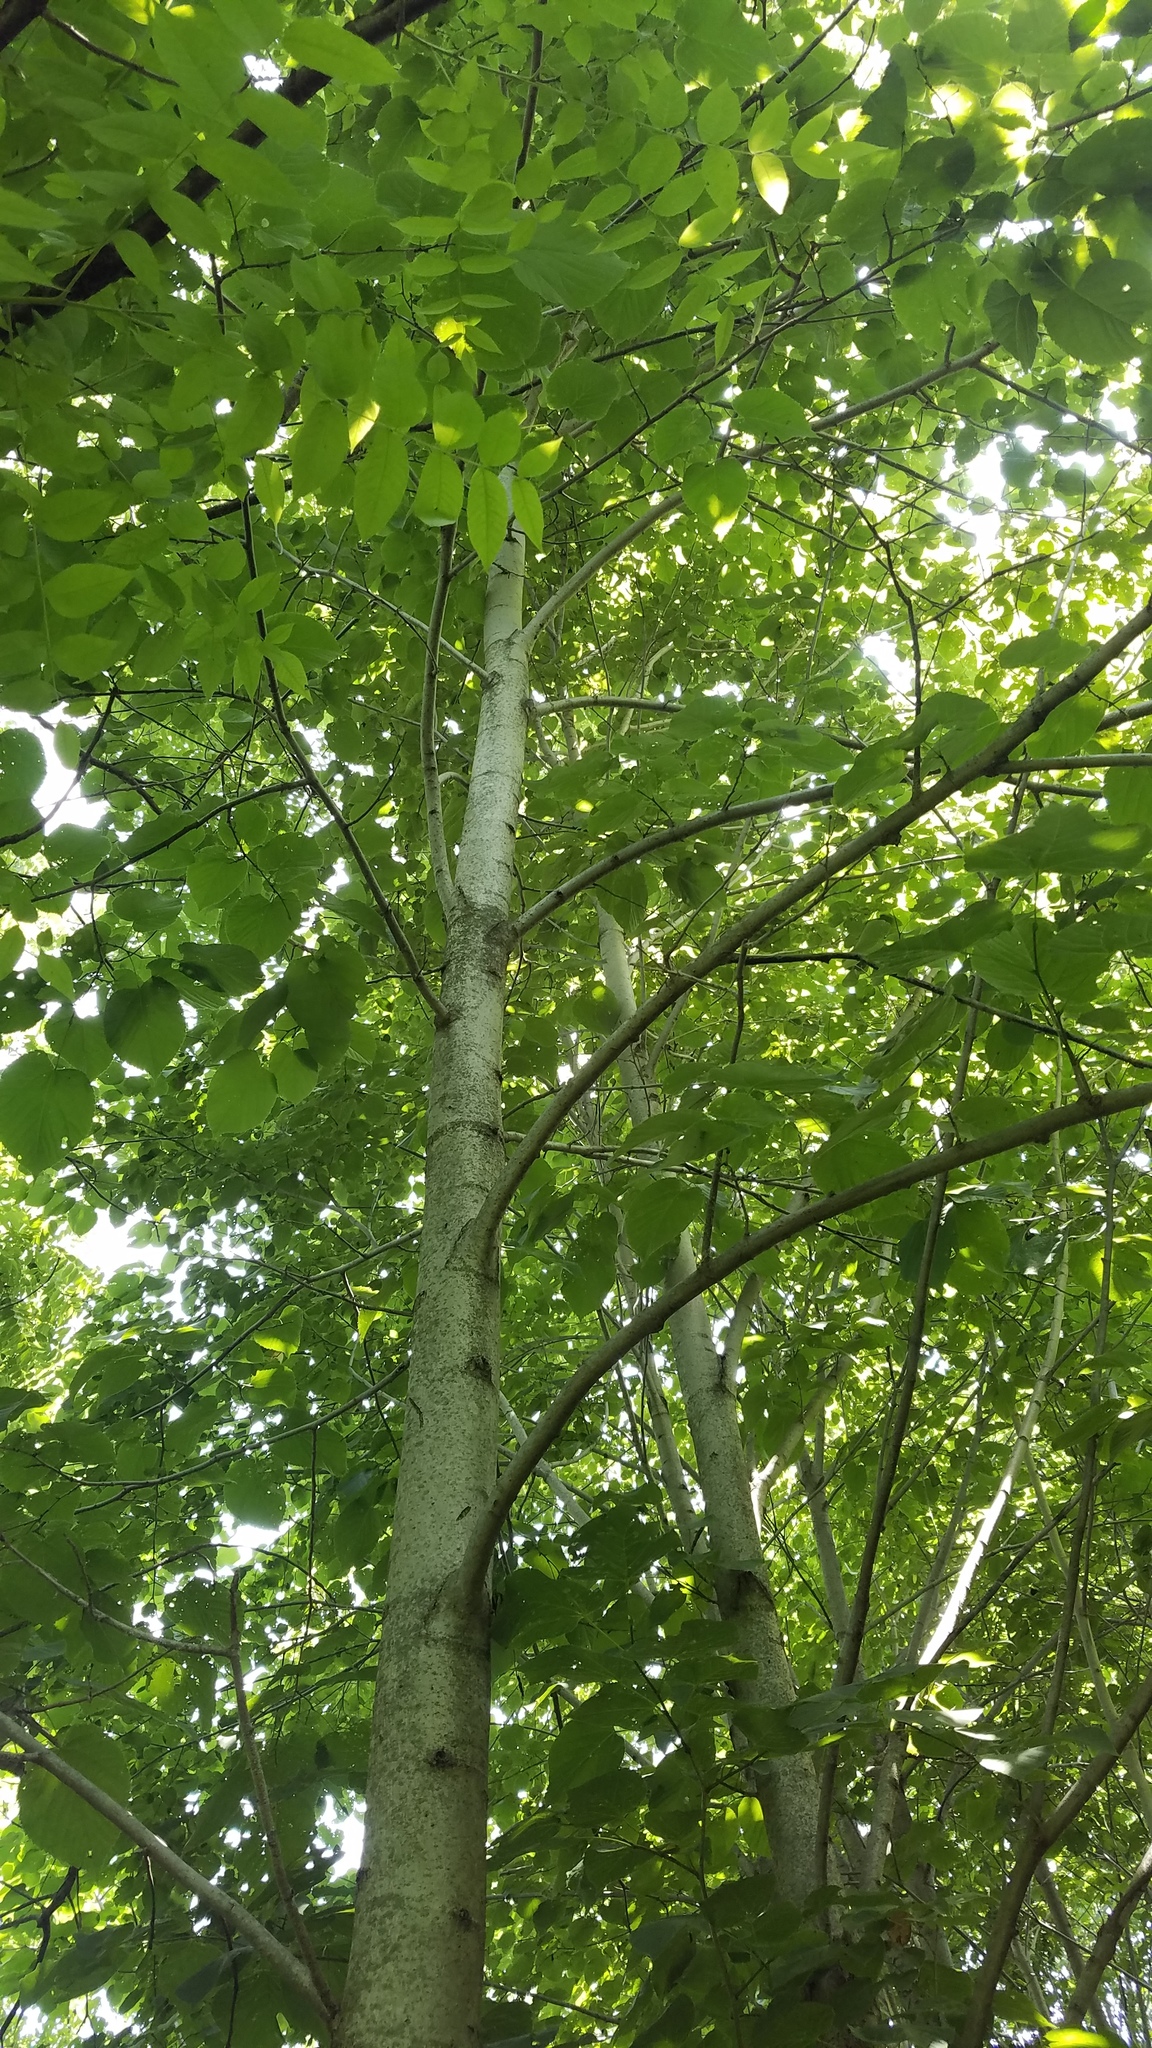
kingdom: Plantae
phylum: Tracheophyta
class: Magnoliopsida
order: Malpighiales
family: Salicaceae
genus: Populus
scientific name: Populus tremuloides
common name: Quaking aspen
